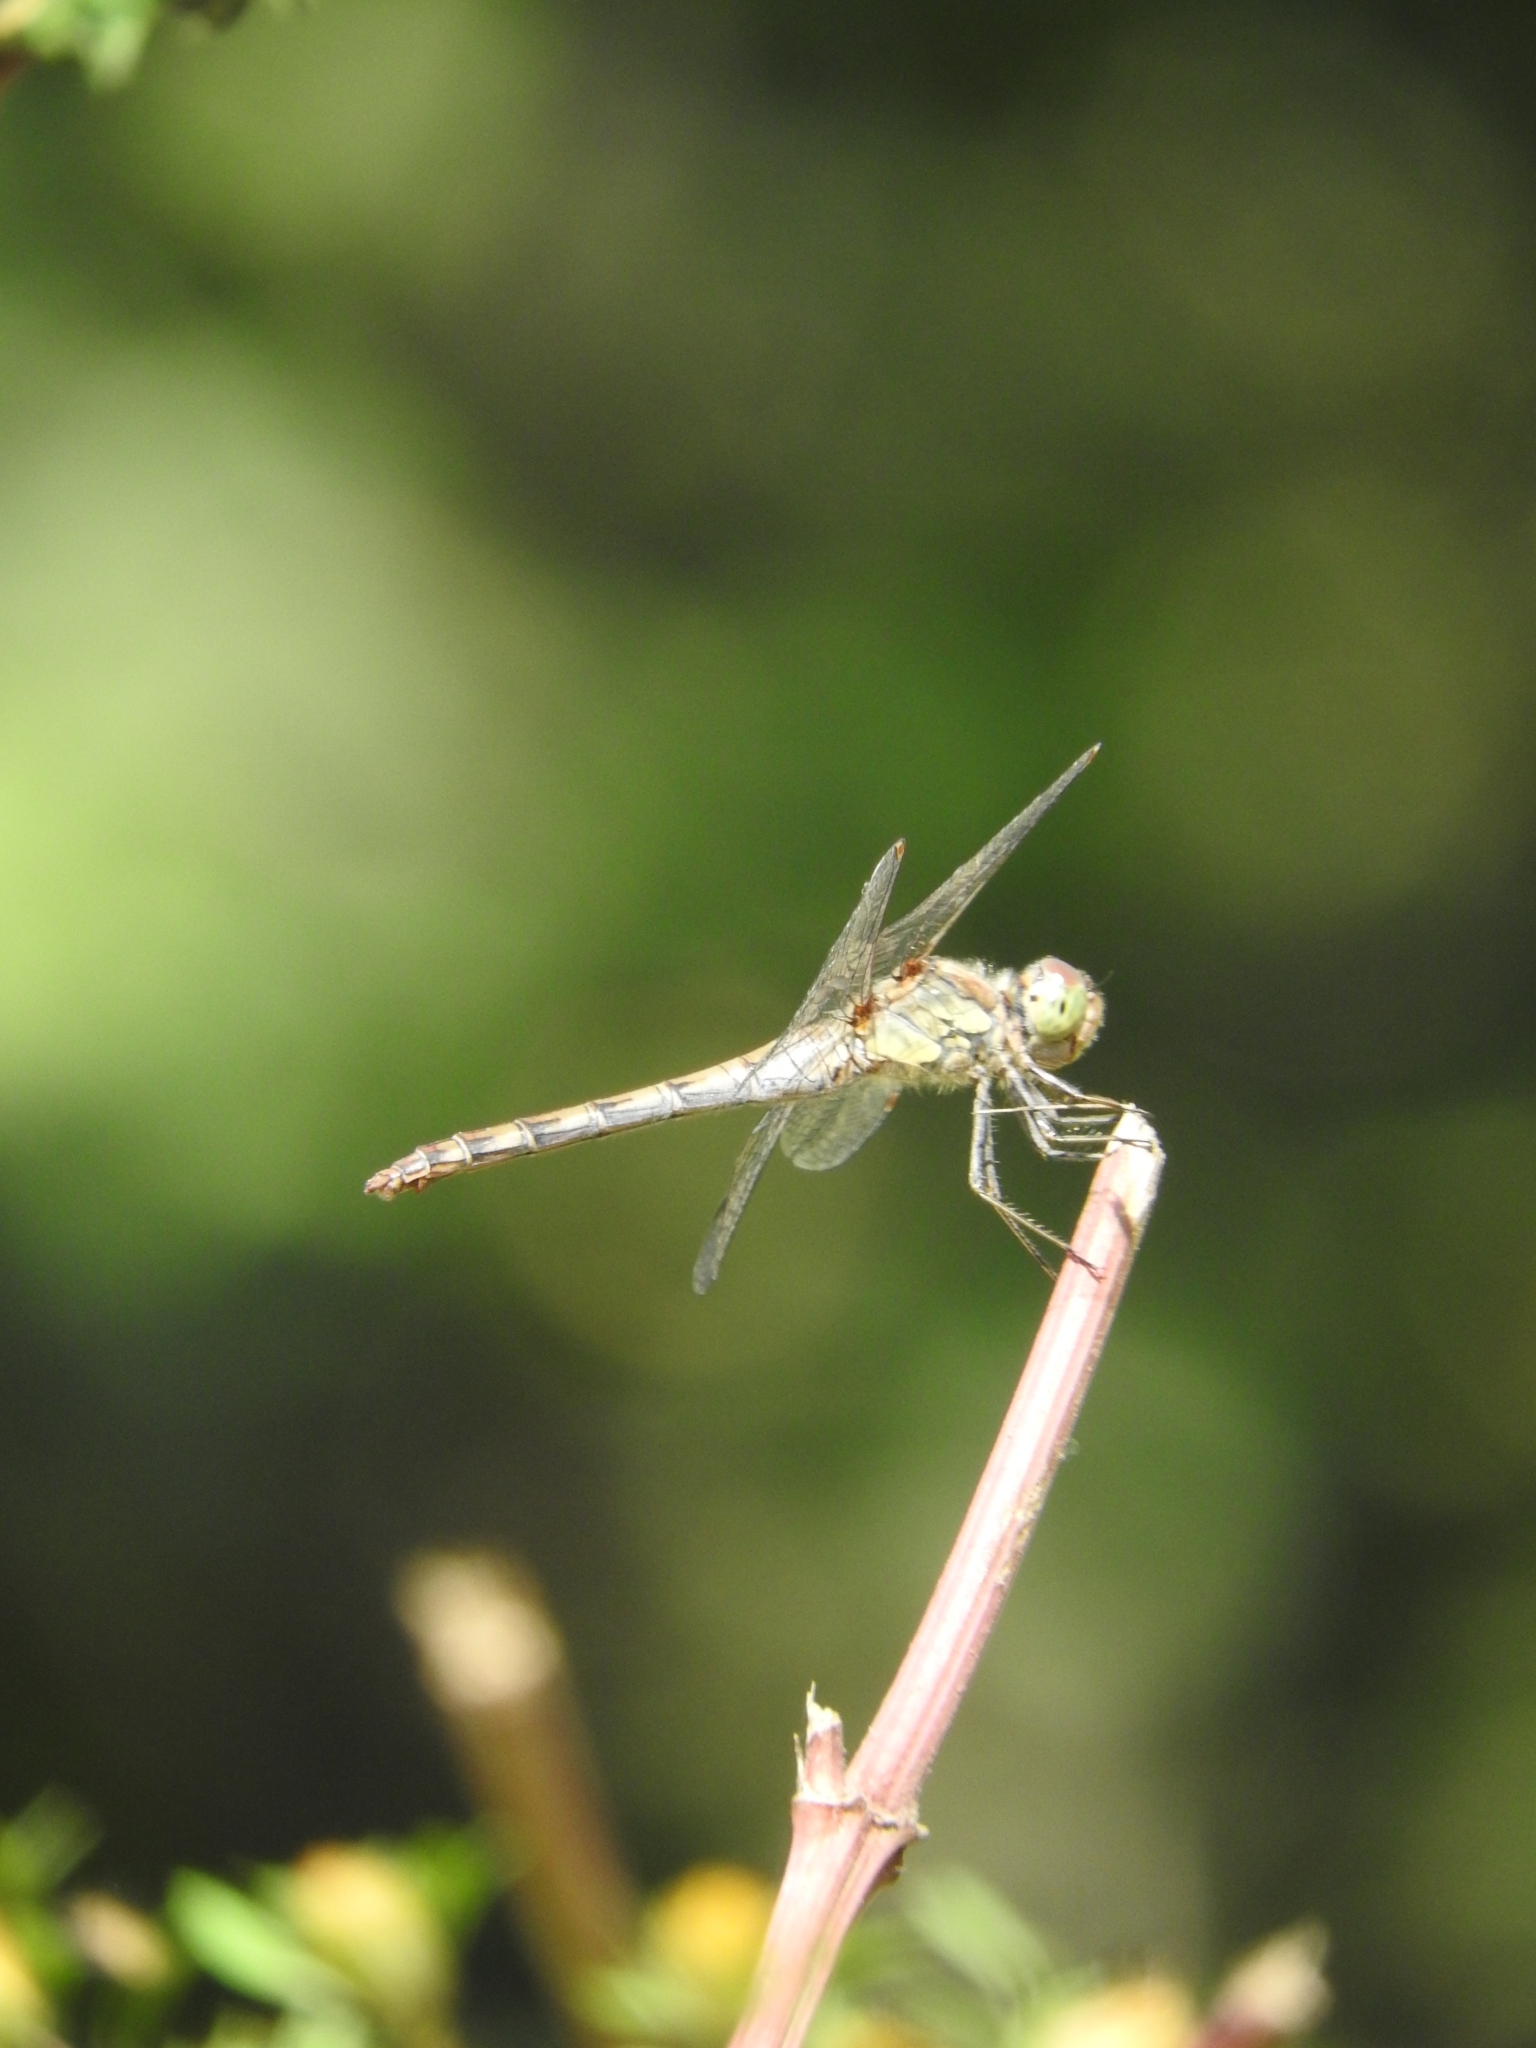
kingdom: Animalia
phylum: Arthropoda
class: Insecta
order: Odonata
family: Libellulidae
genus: Sympetrum
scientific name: Sympetrum striolatum
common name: Common darter
